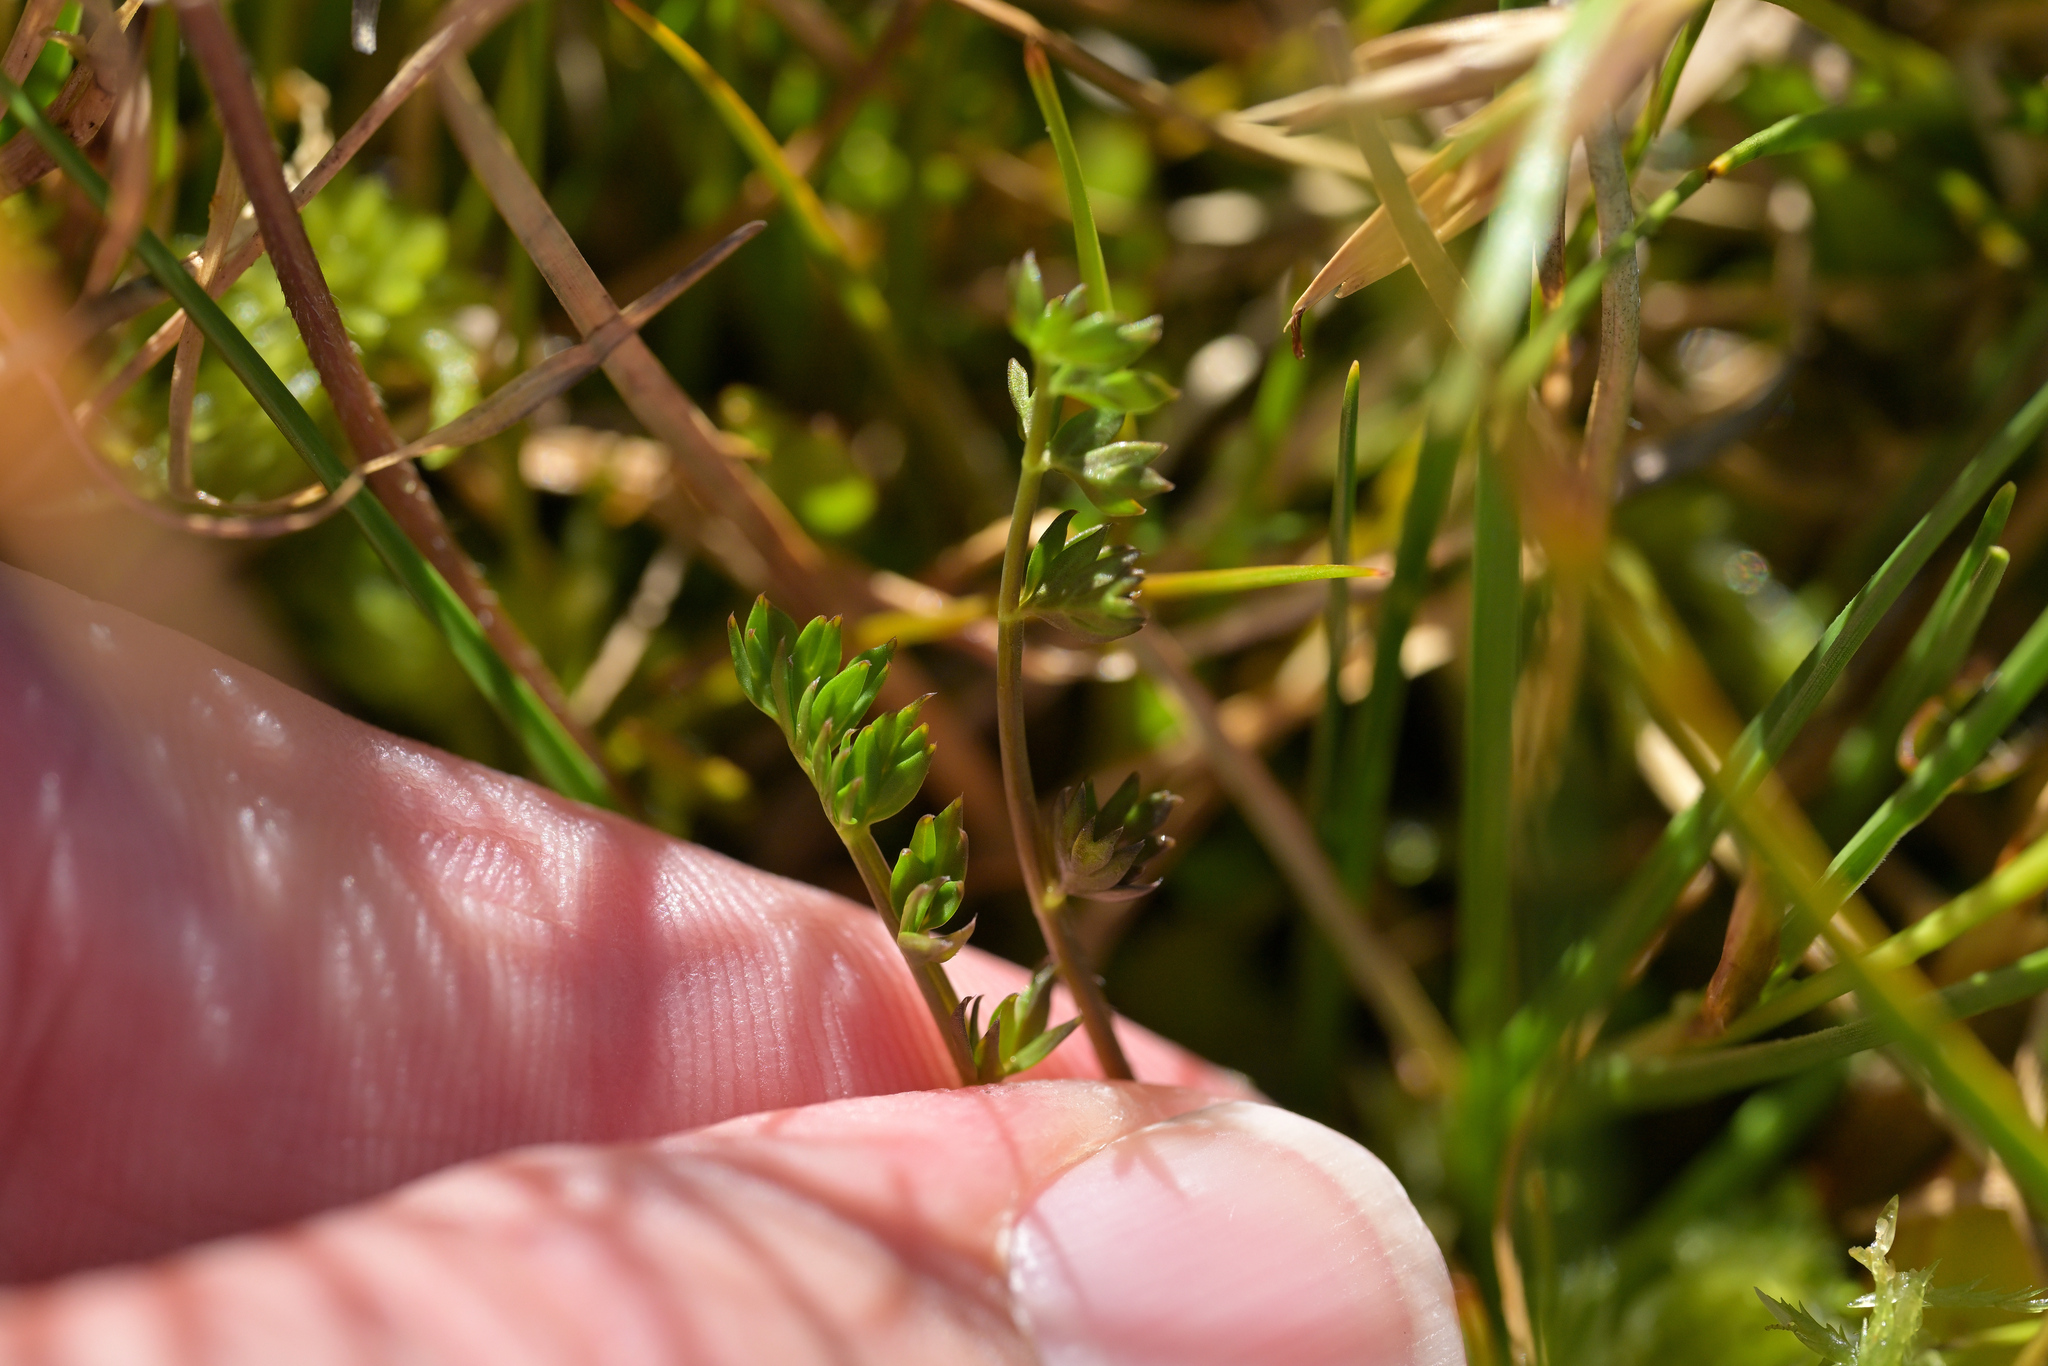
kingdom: Plantae
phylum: Tracheophyta
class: Magnoliopsida
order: Ranunculales
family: Ranunculaceae
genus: Ranunculus
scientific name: Ranunculus gracilipes
